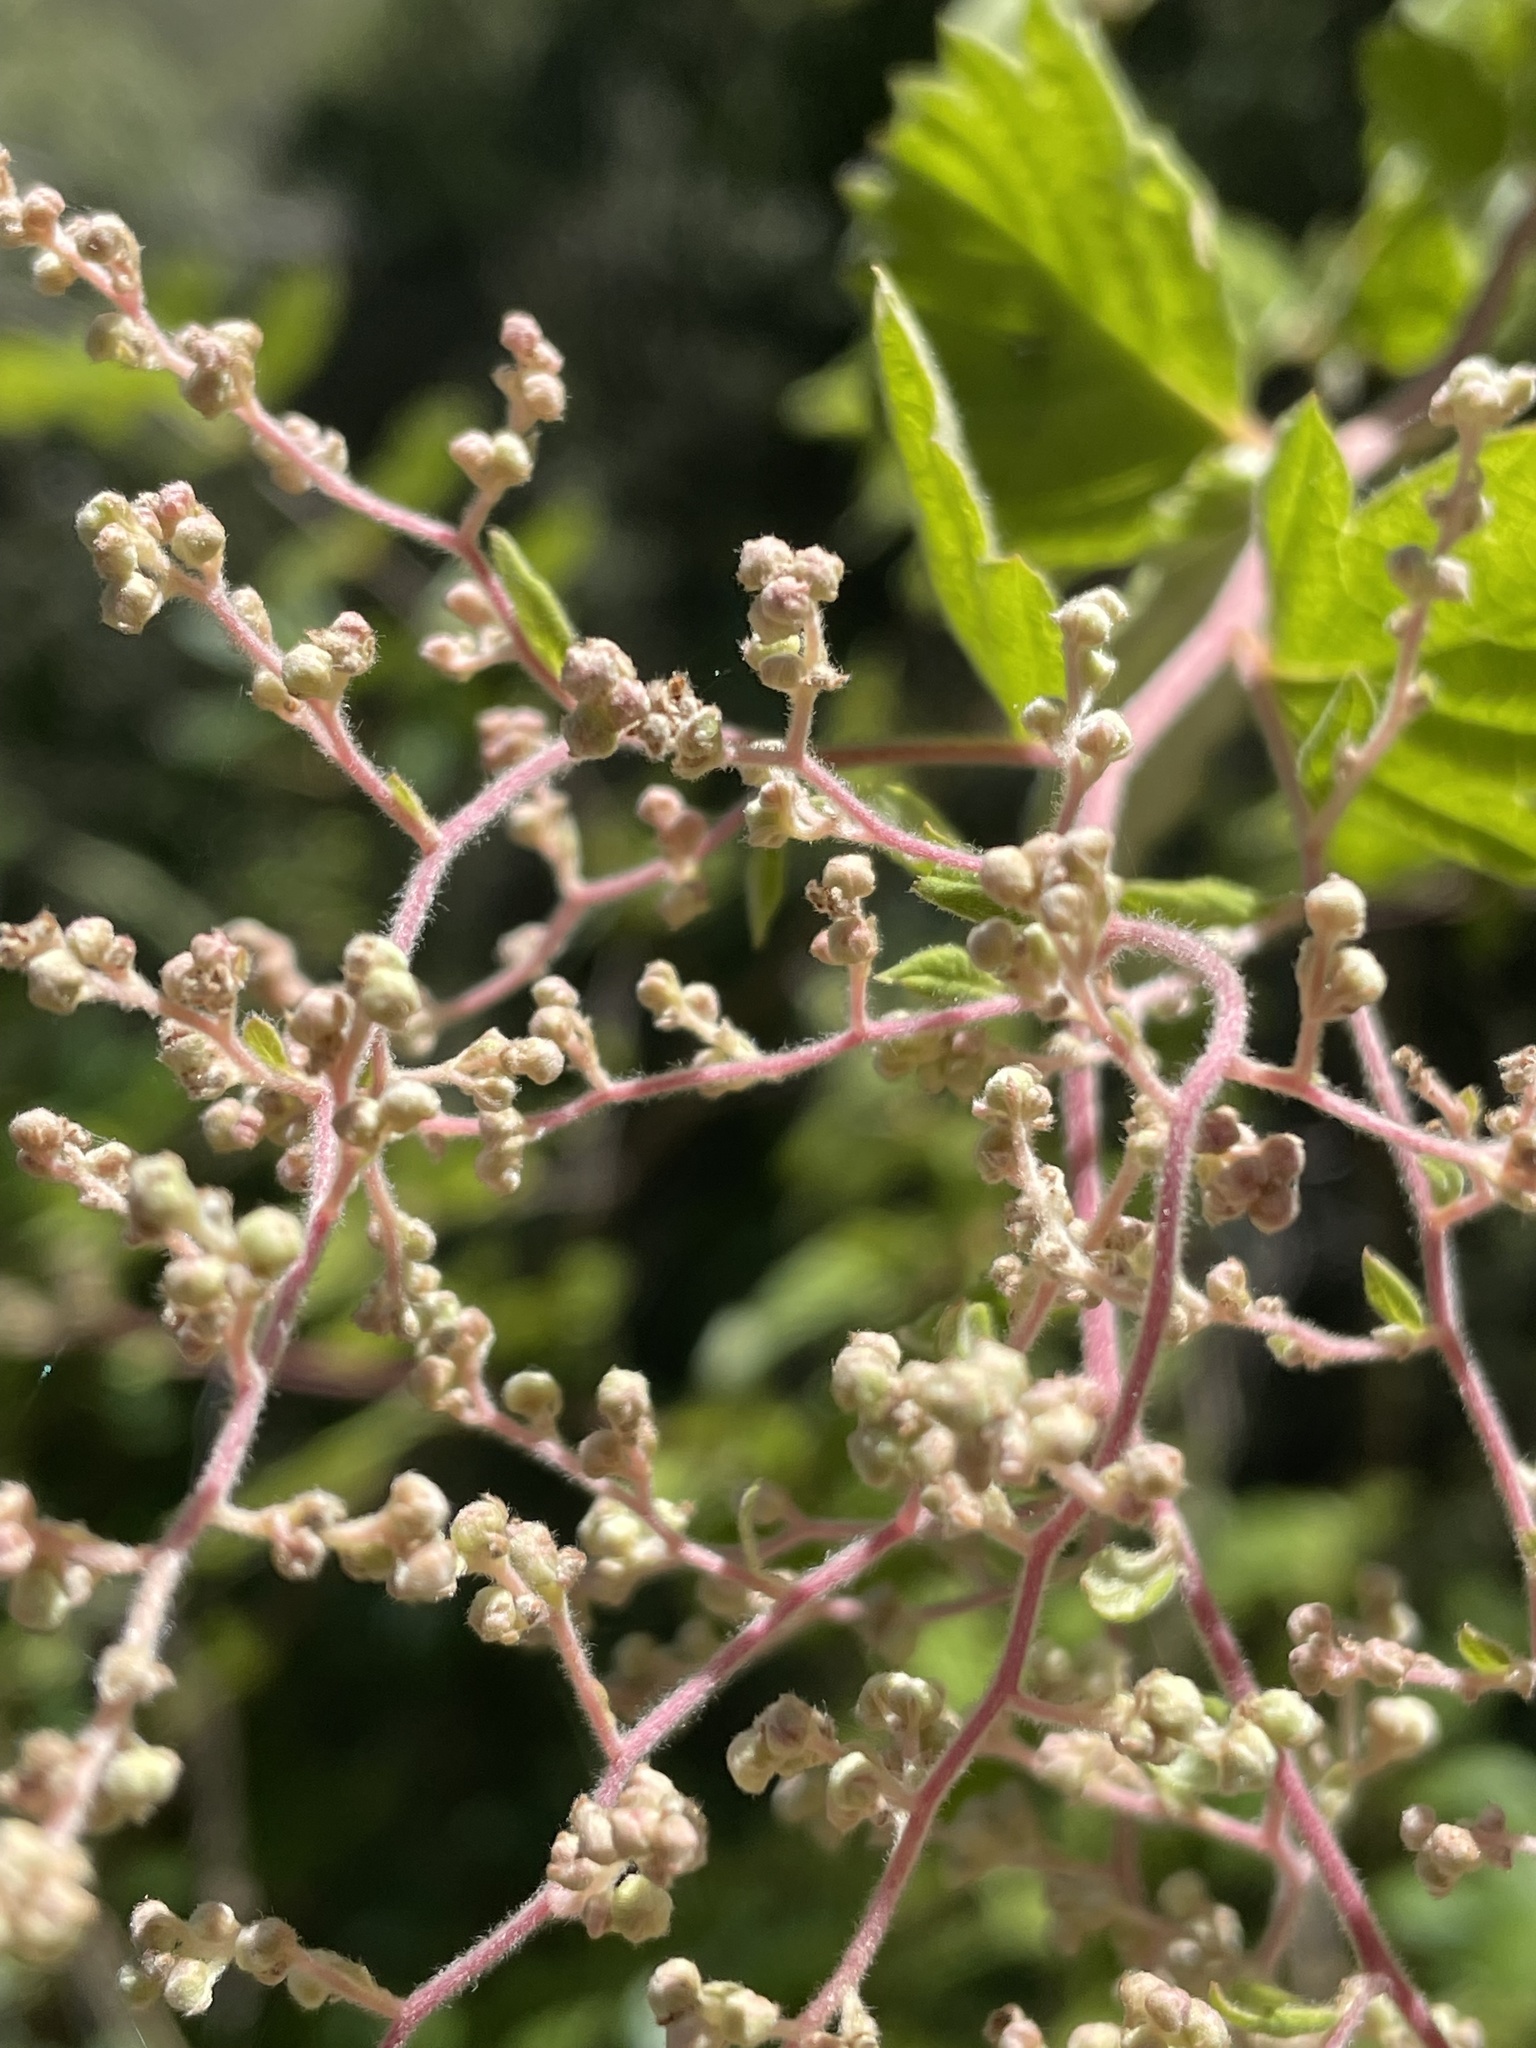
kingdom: Plantae
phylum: Tracheophyta
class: Magnoliopsida
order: Rosales
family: Rosaceae
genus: Holodiscus
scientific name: Holodiscus discolor
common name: Oceanspray
